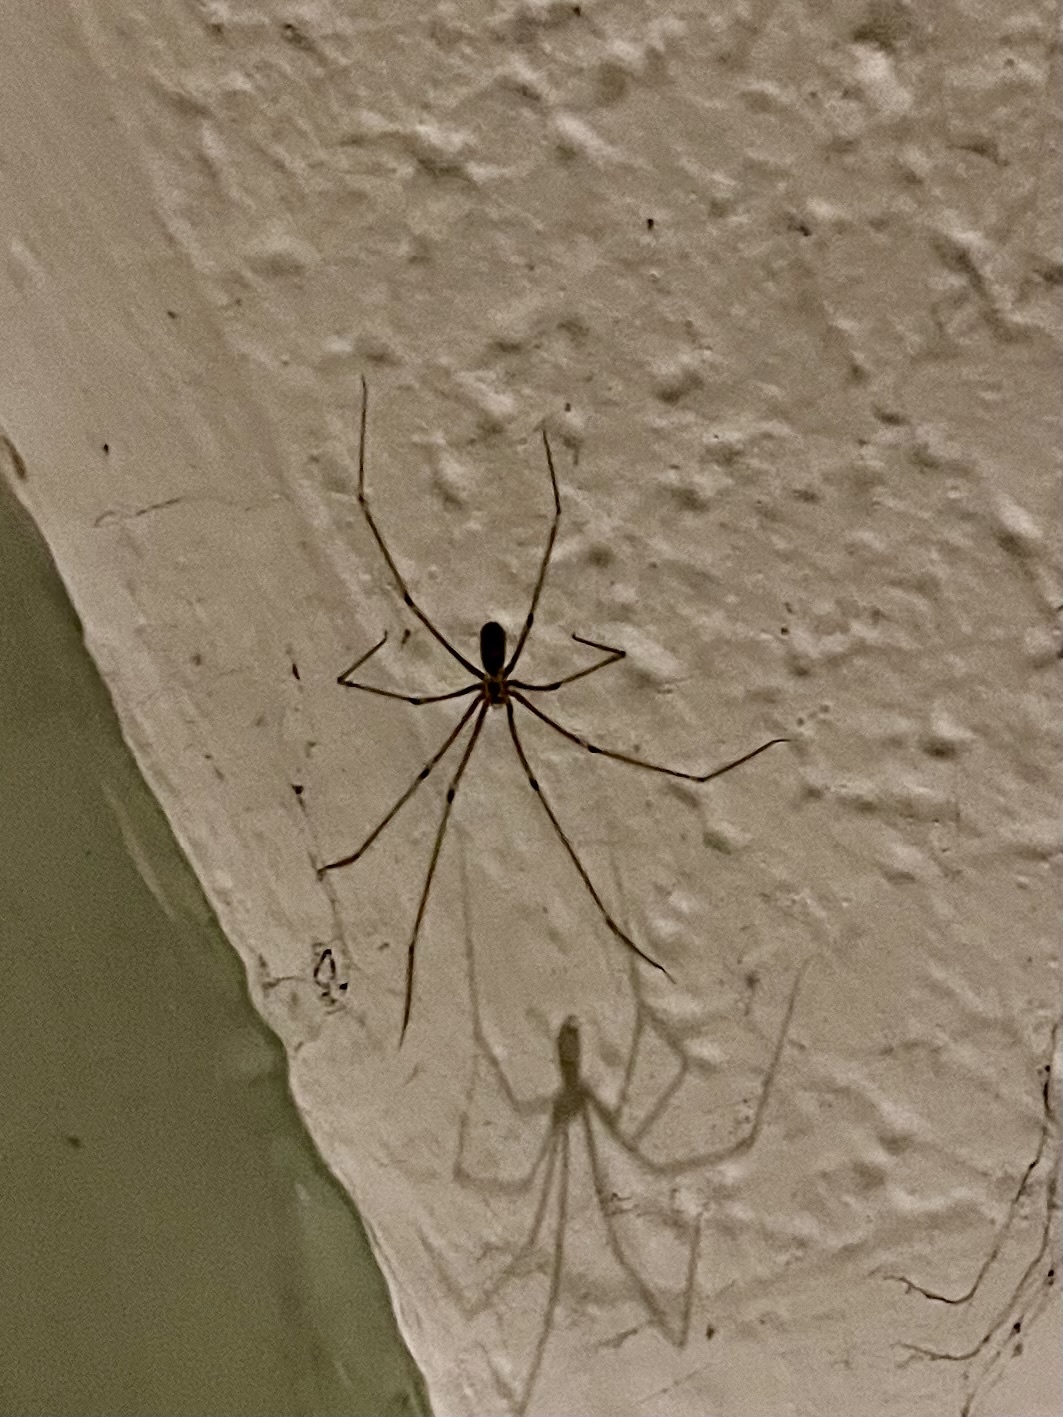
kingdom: Animalia
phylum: Arthropoda
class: Arachnida
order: Araneae
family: Pholcidae
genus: Pholcus
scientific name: Pholcus phalangioides
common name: Longbodied cellar spider
